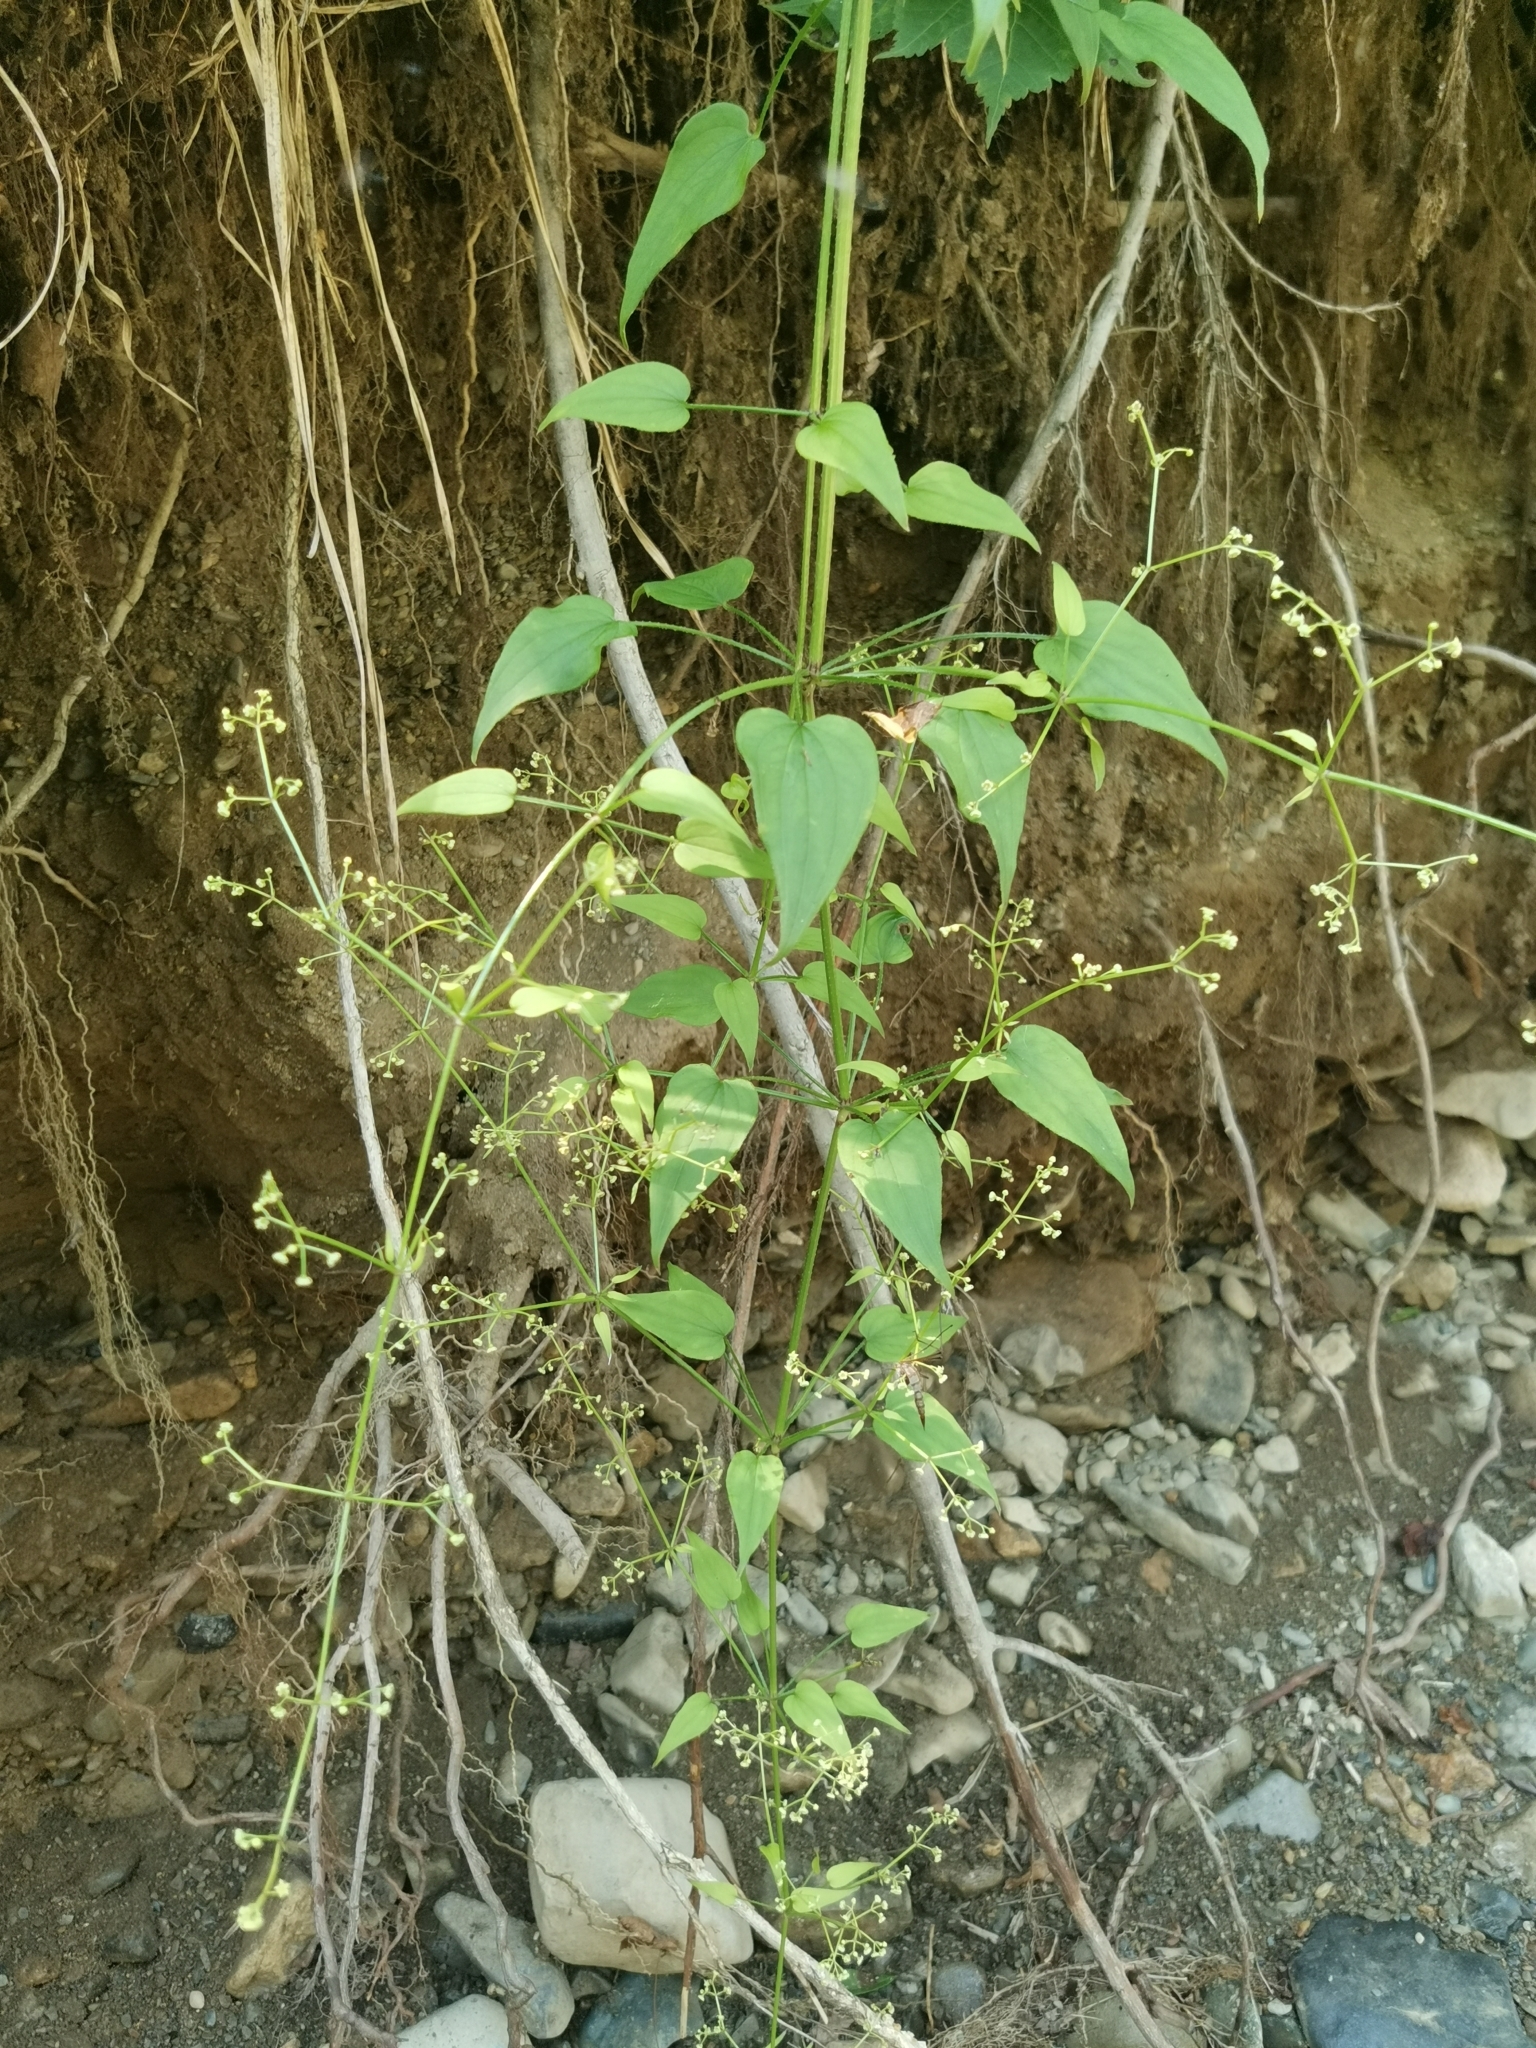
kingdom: Plantae
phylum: Tracheophyta
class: Magnoliopsida
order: Gentianales
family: Rubiaceae
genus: Rubia
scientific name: Rubia cordifolia
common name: Indian madder
